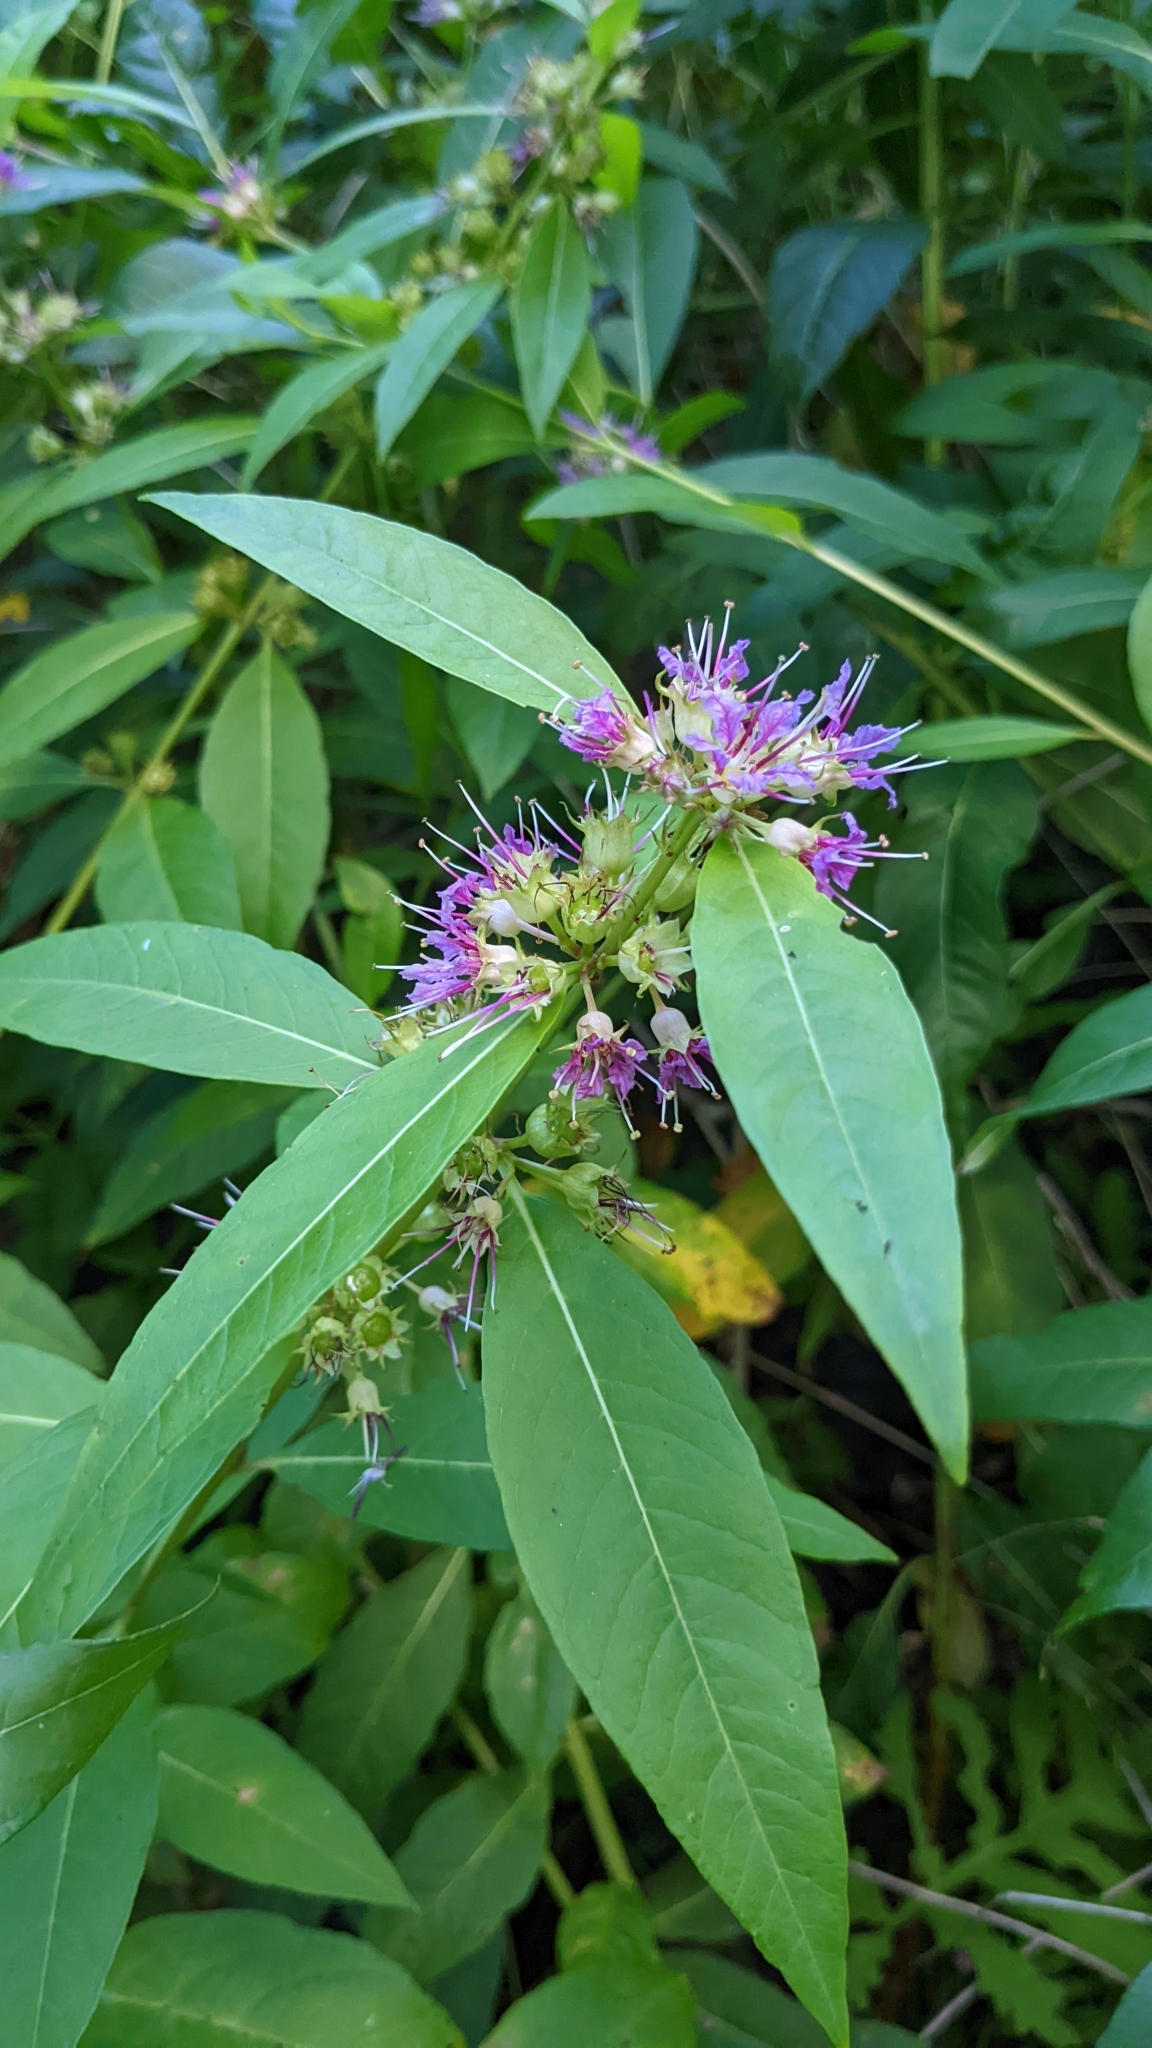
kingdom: Plantae
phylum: Tracheophyta
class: Magnoliopsida
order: Myrtales
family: Lythraceae
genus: Decodon
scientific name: Decodon verticillatus
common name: Hairy swamp loosestrife
